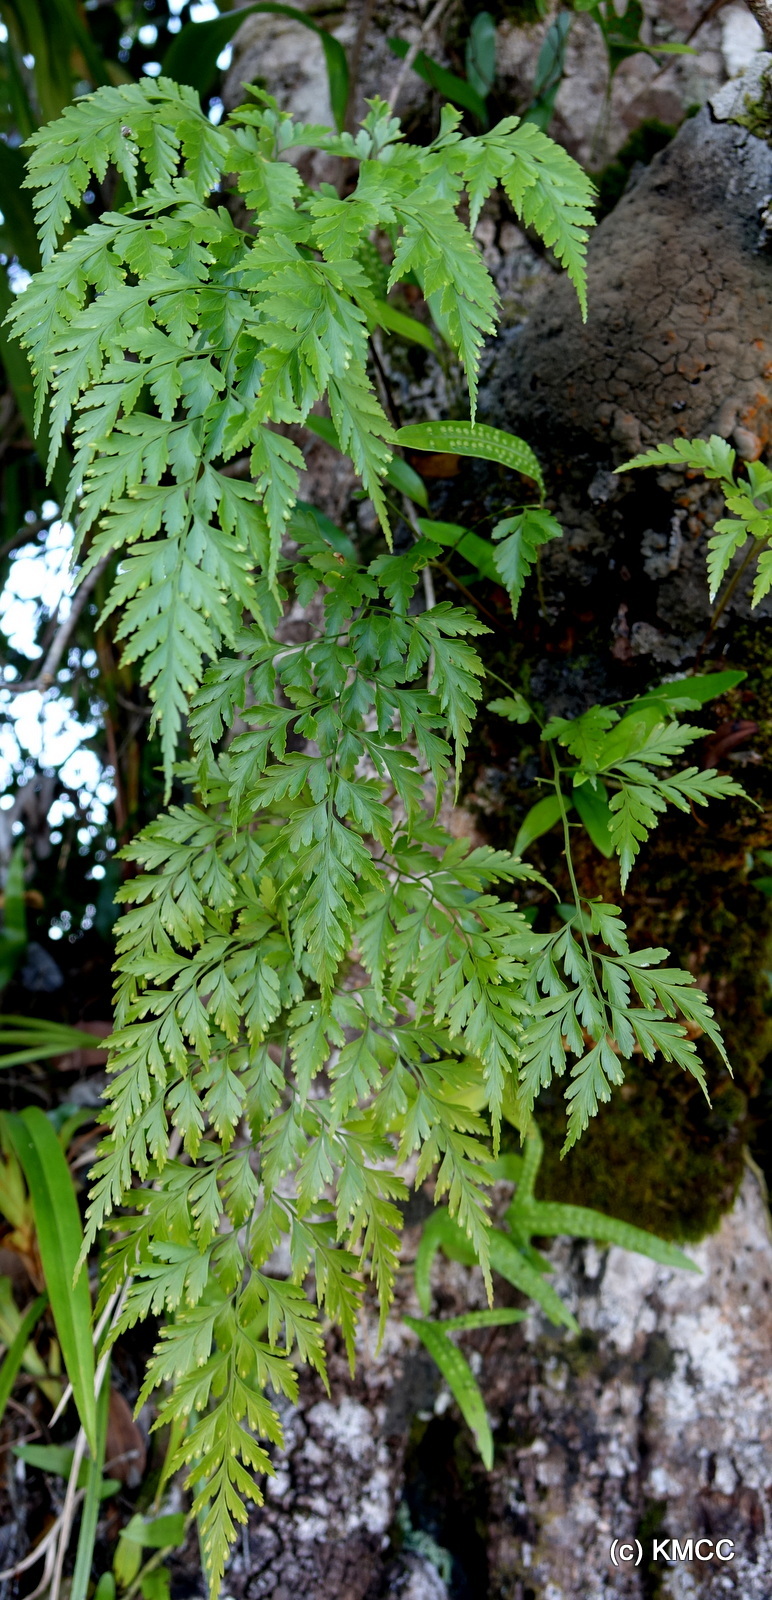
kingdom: Plantae
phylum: Tracheophyta
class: Polypodiopsida
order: Polypodiales
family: Davalliaceae
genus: Davallia
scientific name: Davallia chaerophylloides
